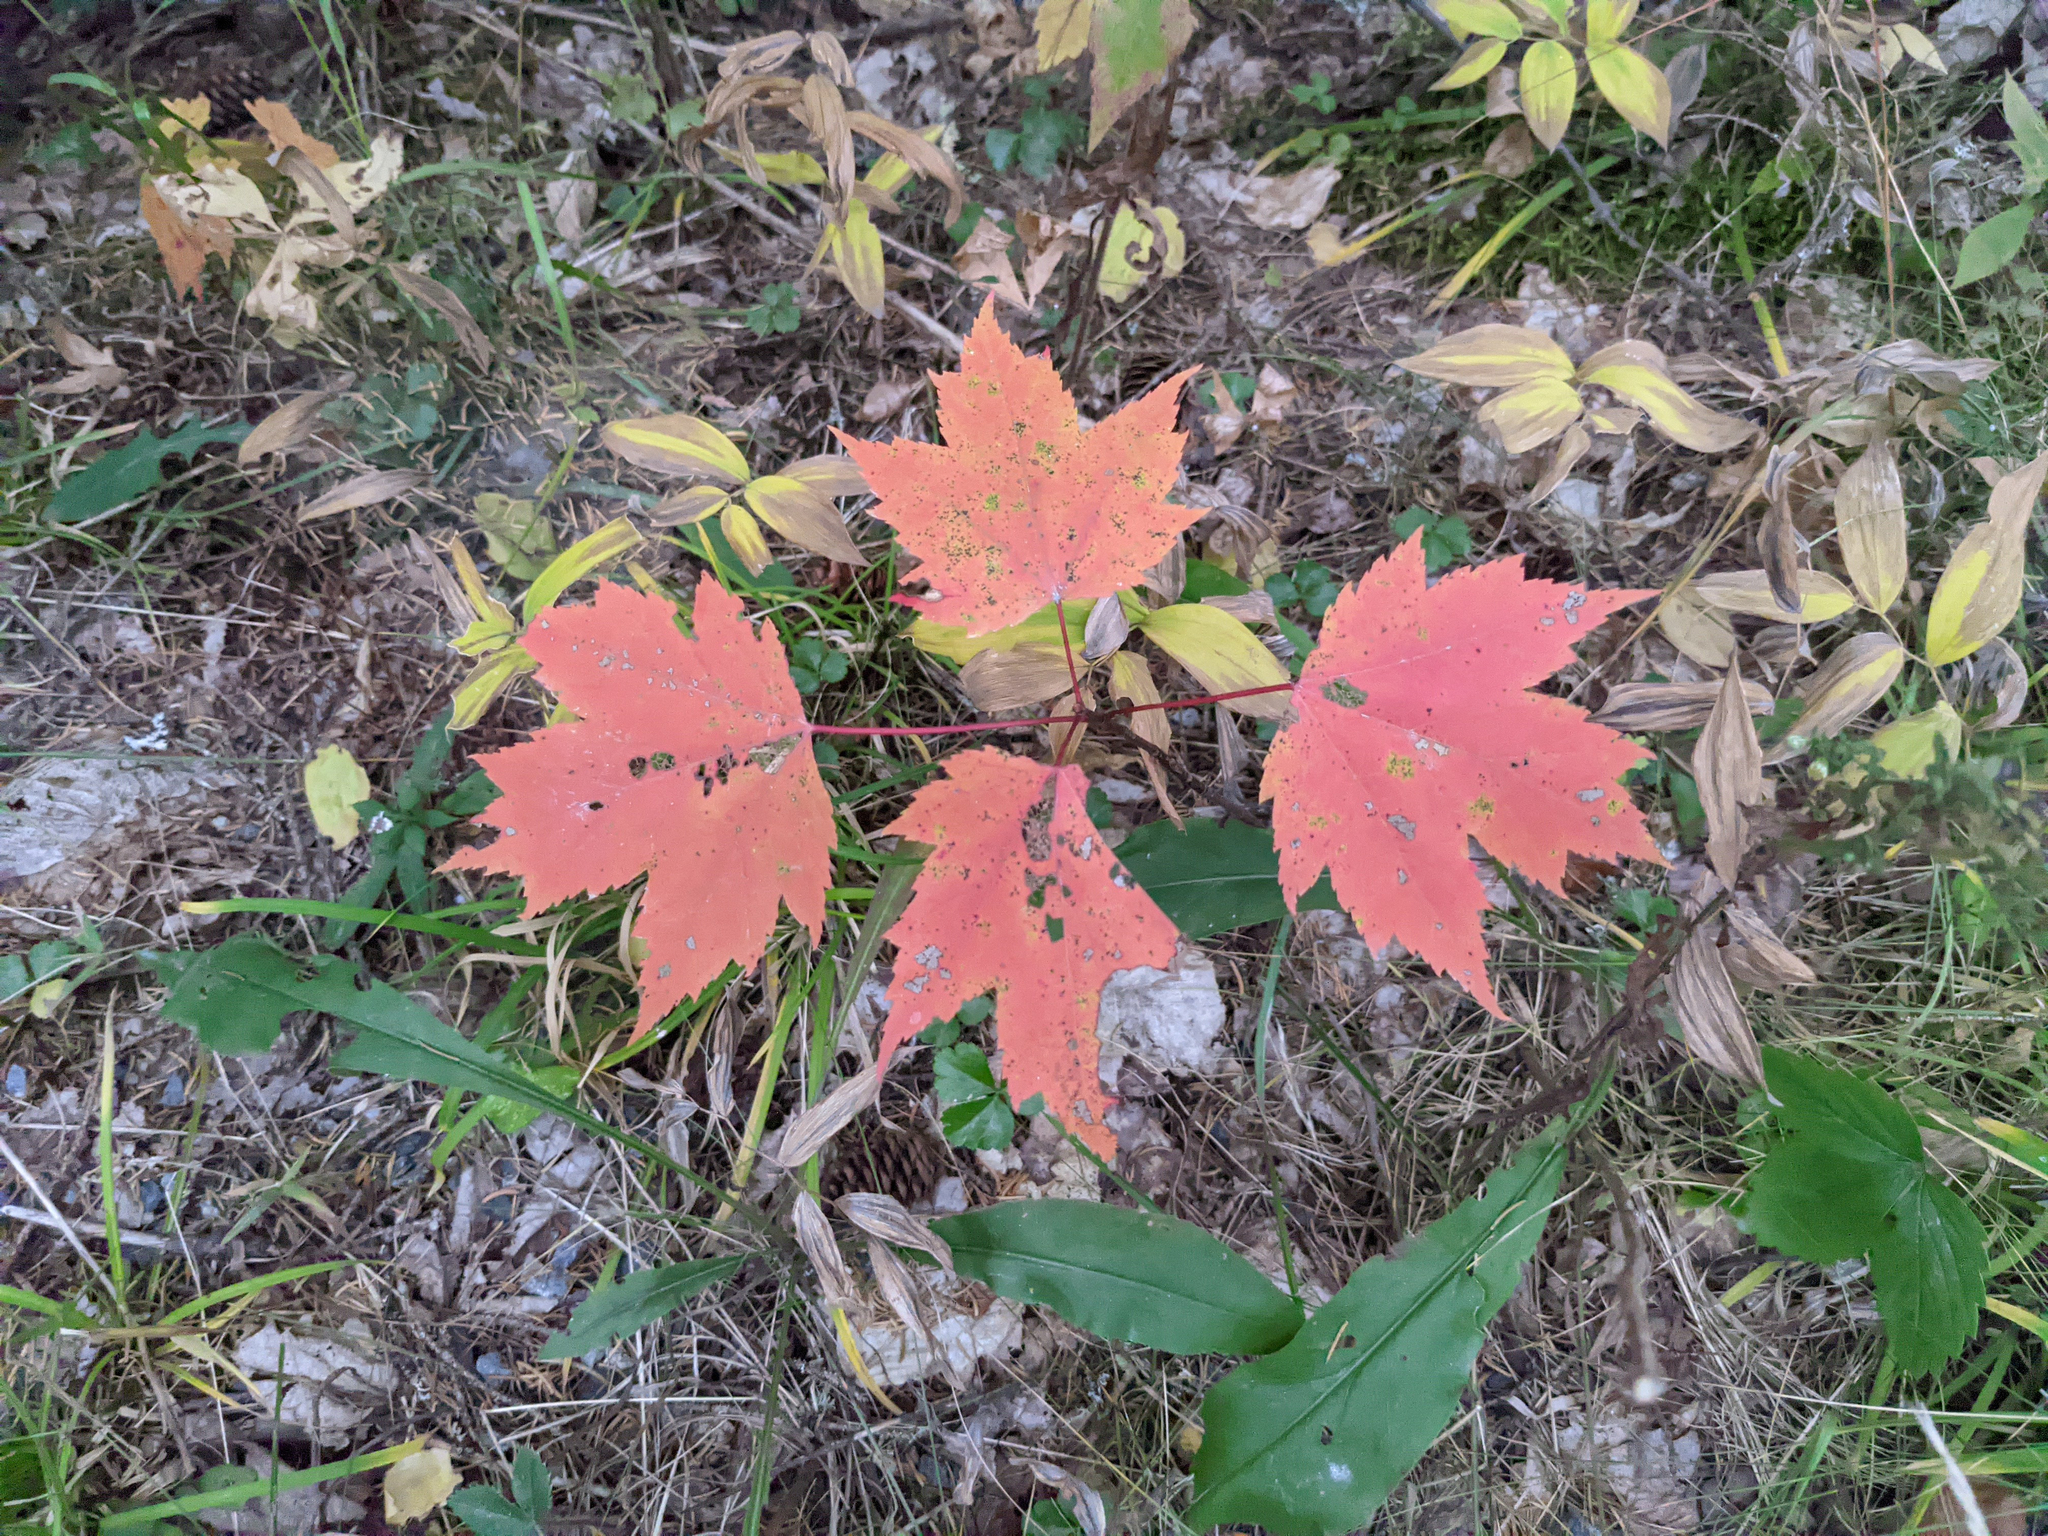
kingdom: Plantae
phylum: Tracheophyta
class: Magnoliopsida
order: Sapindales
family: Sapindaceae
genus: Acer
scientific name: Acer rubrum
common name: Red maple
